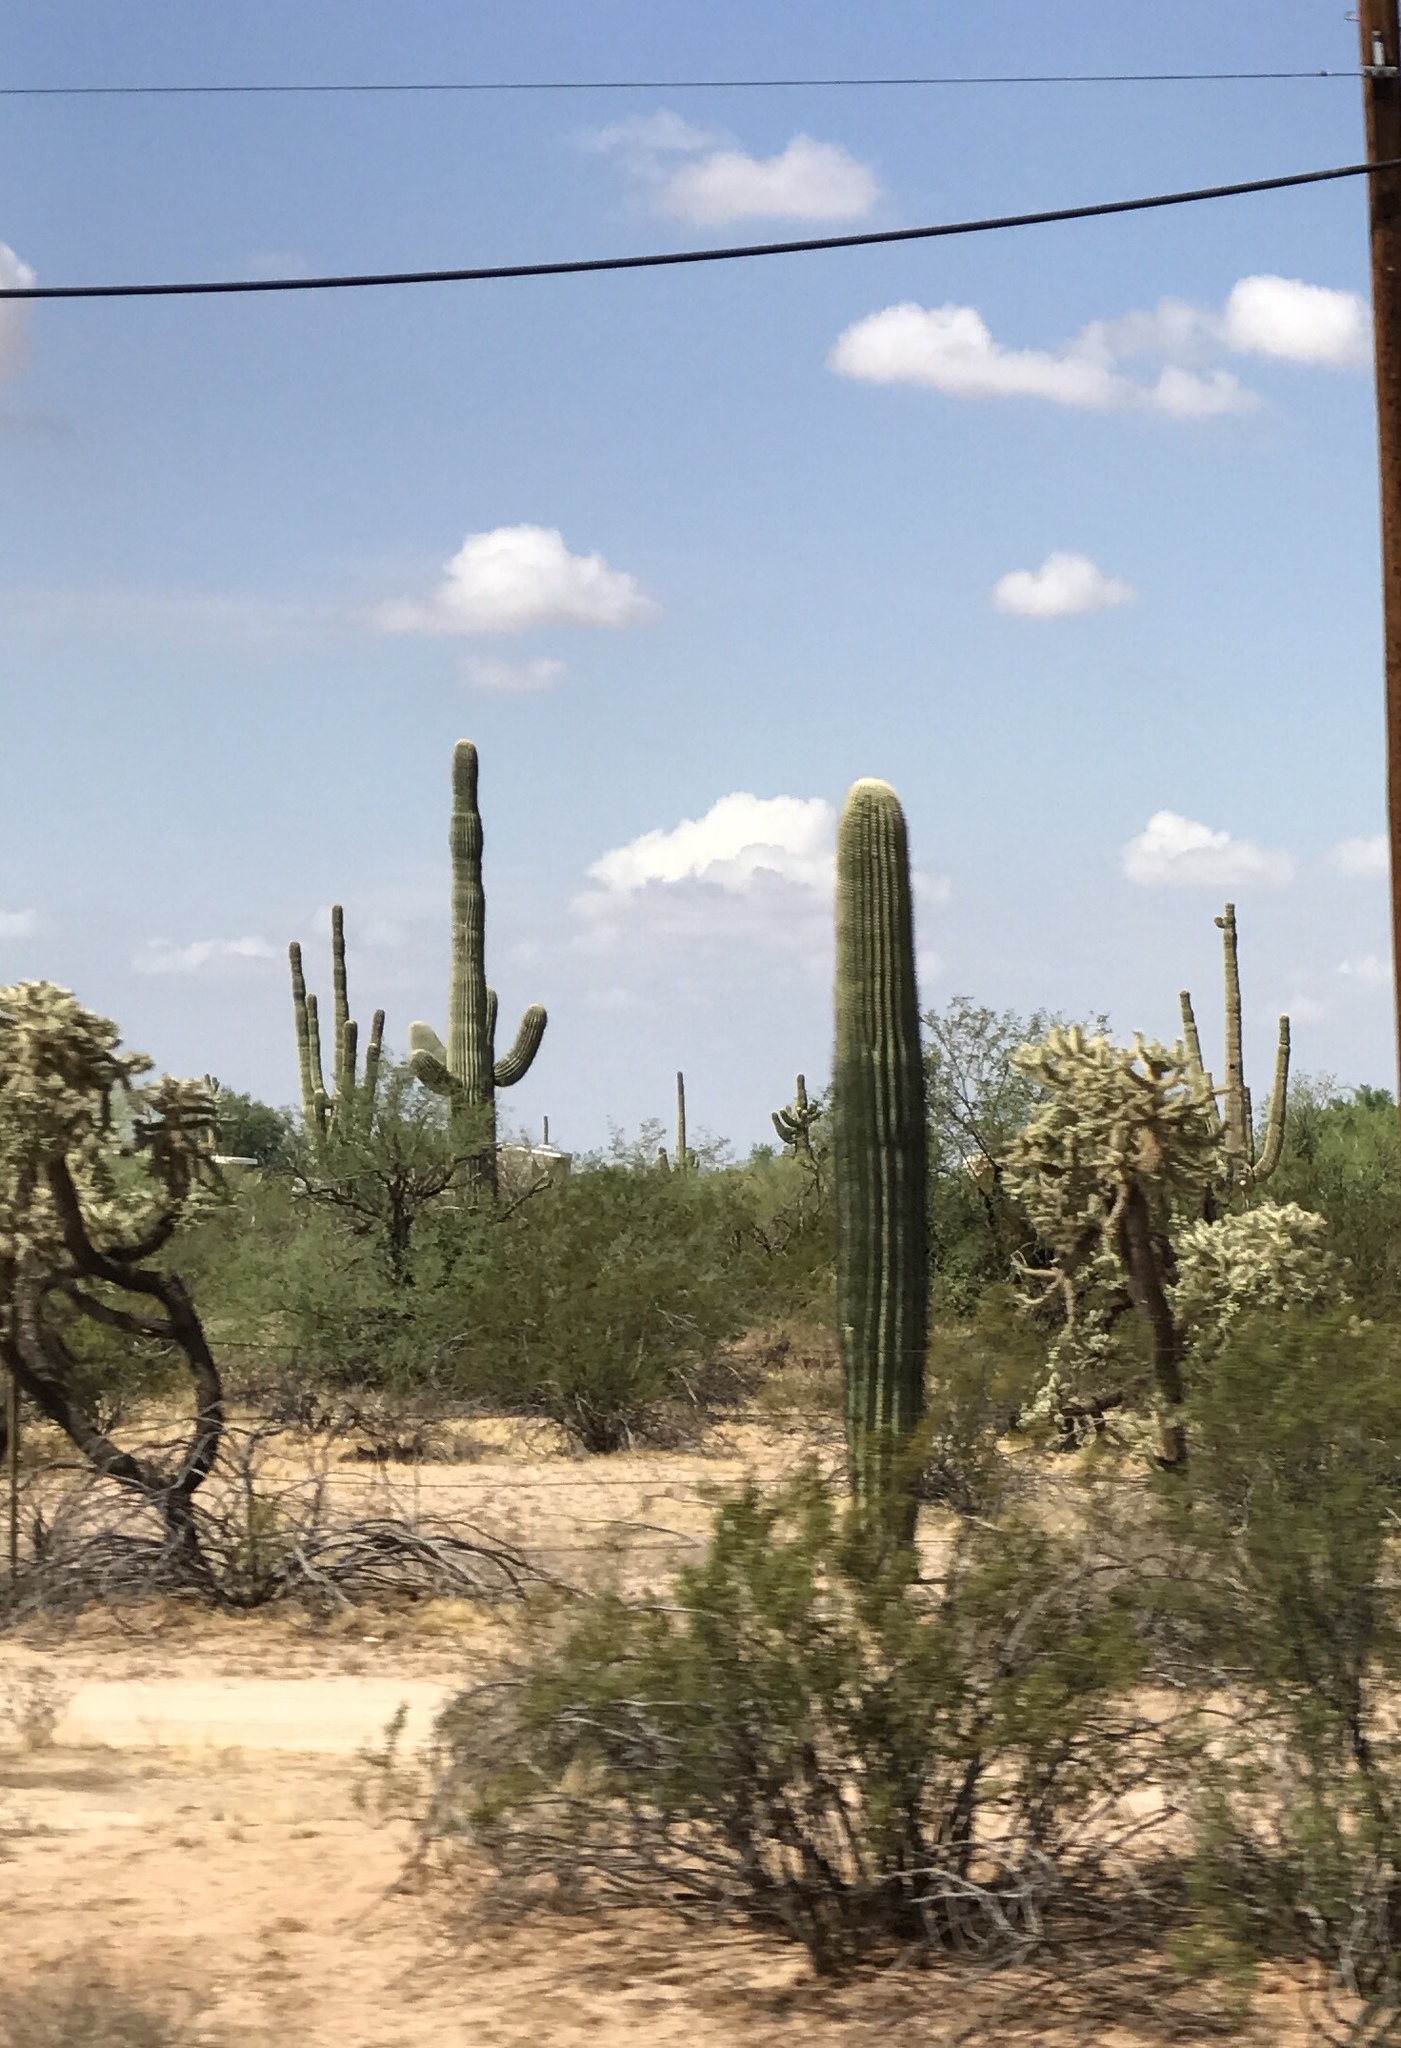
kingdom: Plantae
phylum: Tracheophyta
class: Magnoliopsida
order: Caryophyllales
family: Cactaceae
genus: Carnegiea
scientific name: Carnegiea gigantea
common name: Saguaro
